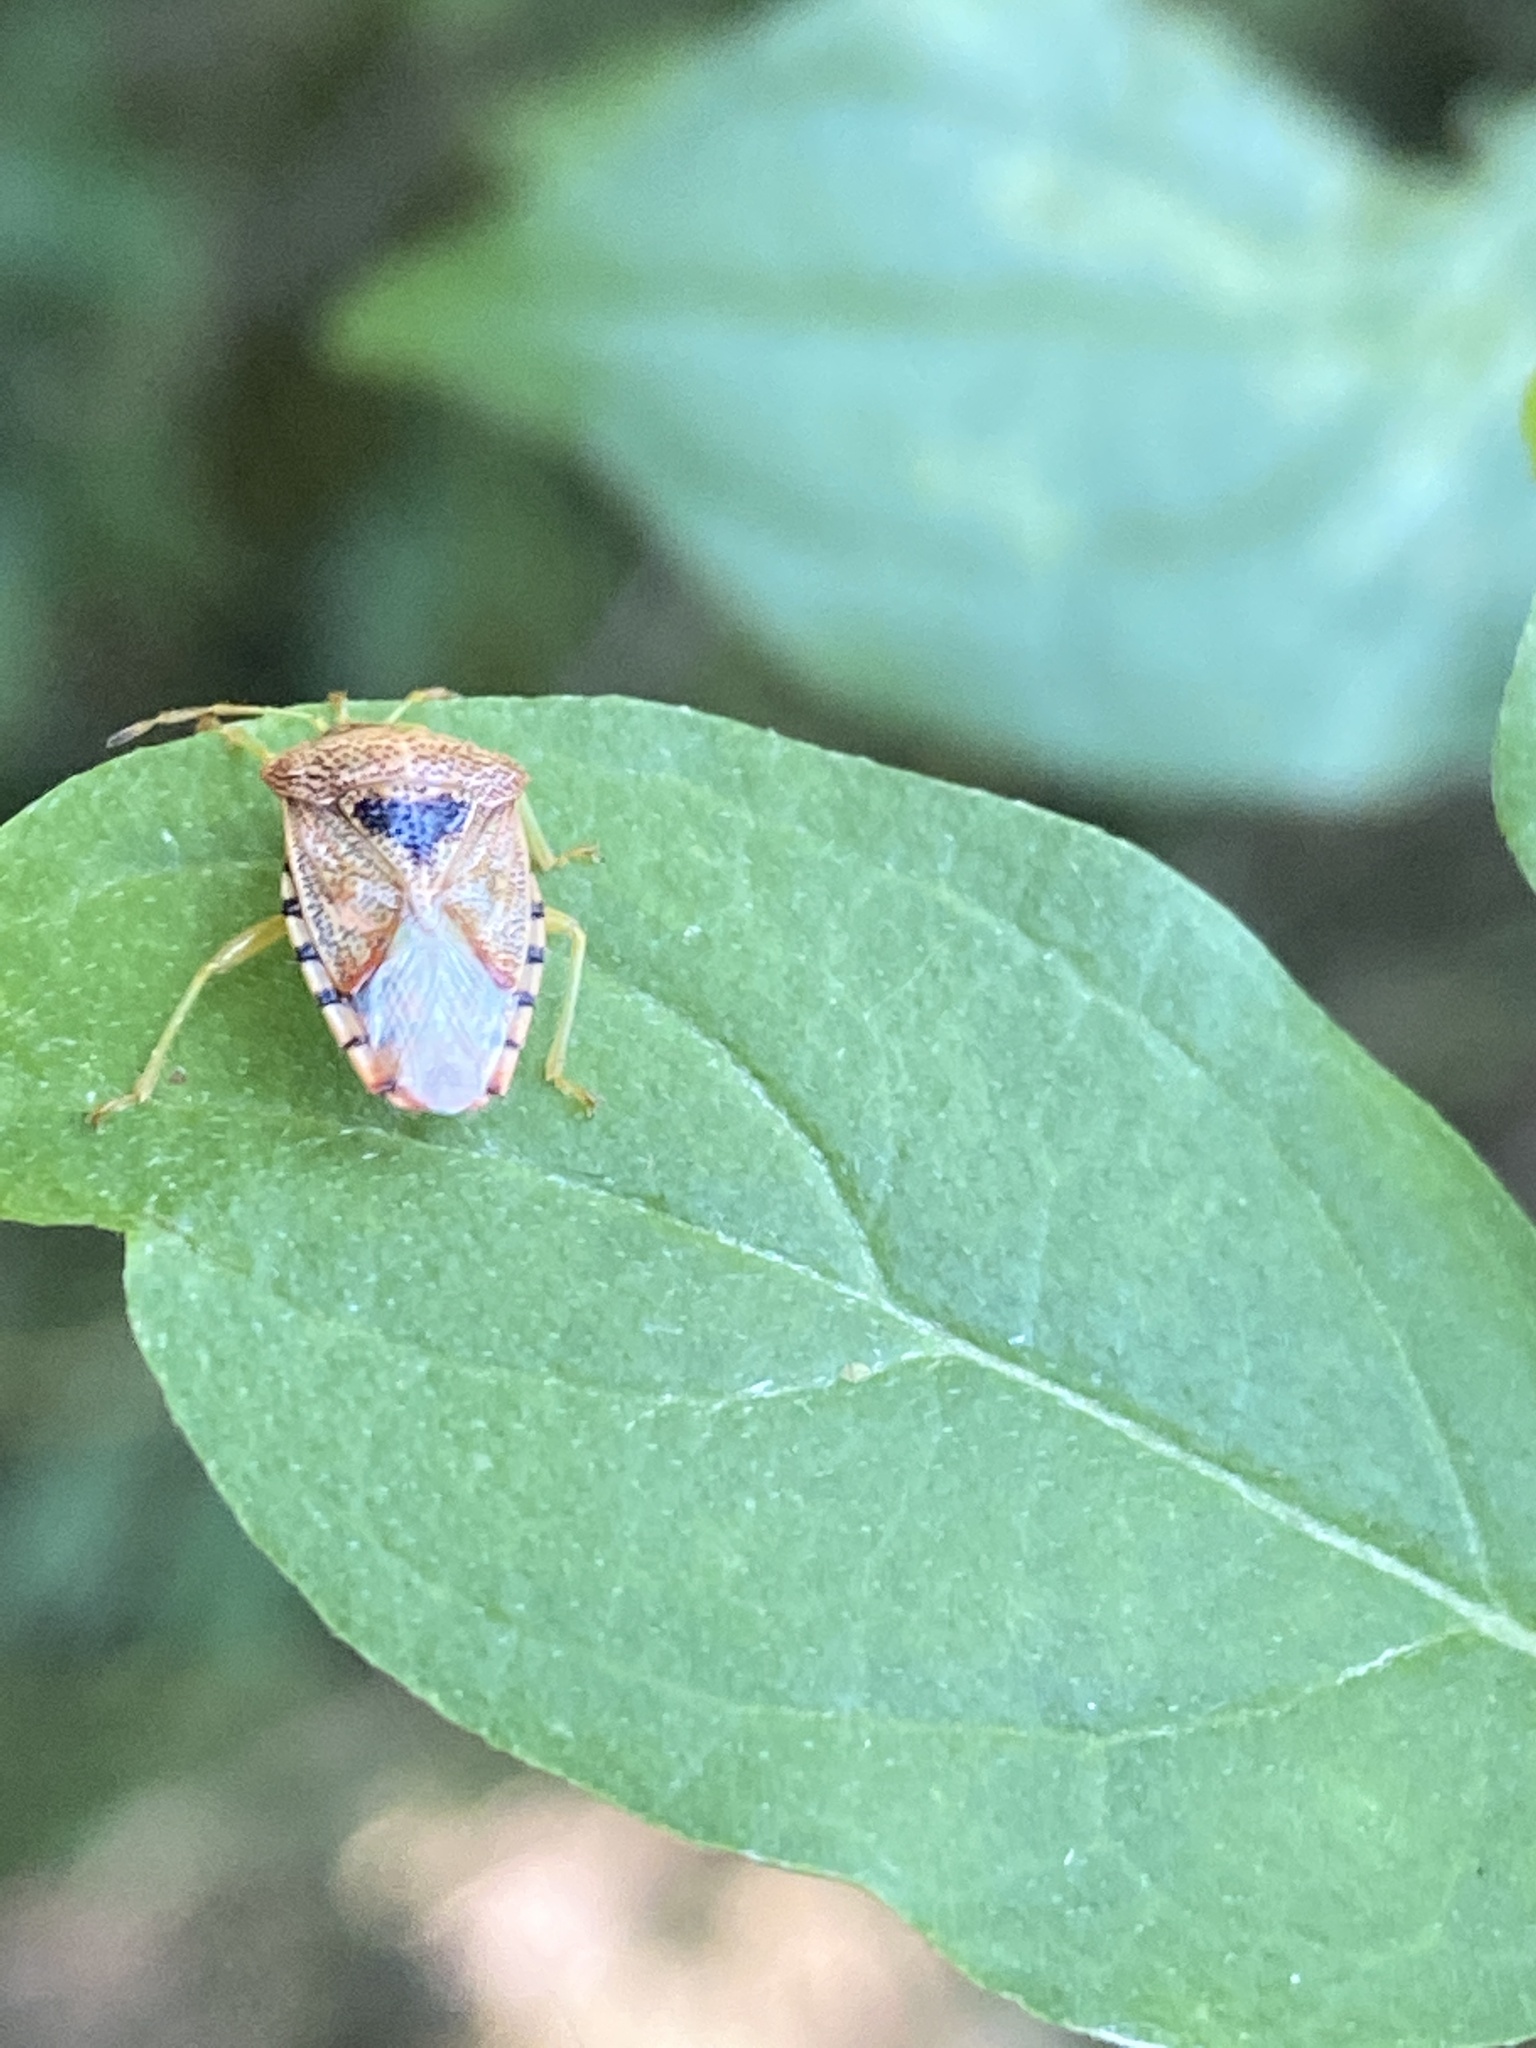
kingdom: Animalia
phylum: Arthropoda
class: Insecta
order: Hemiptera
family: Acanthosomatidae
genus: Elasmucha
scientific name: Elasmucha grisea
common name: Parent bug
